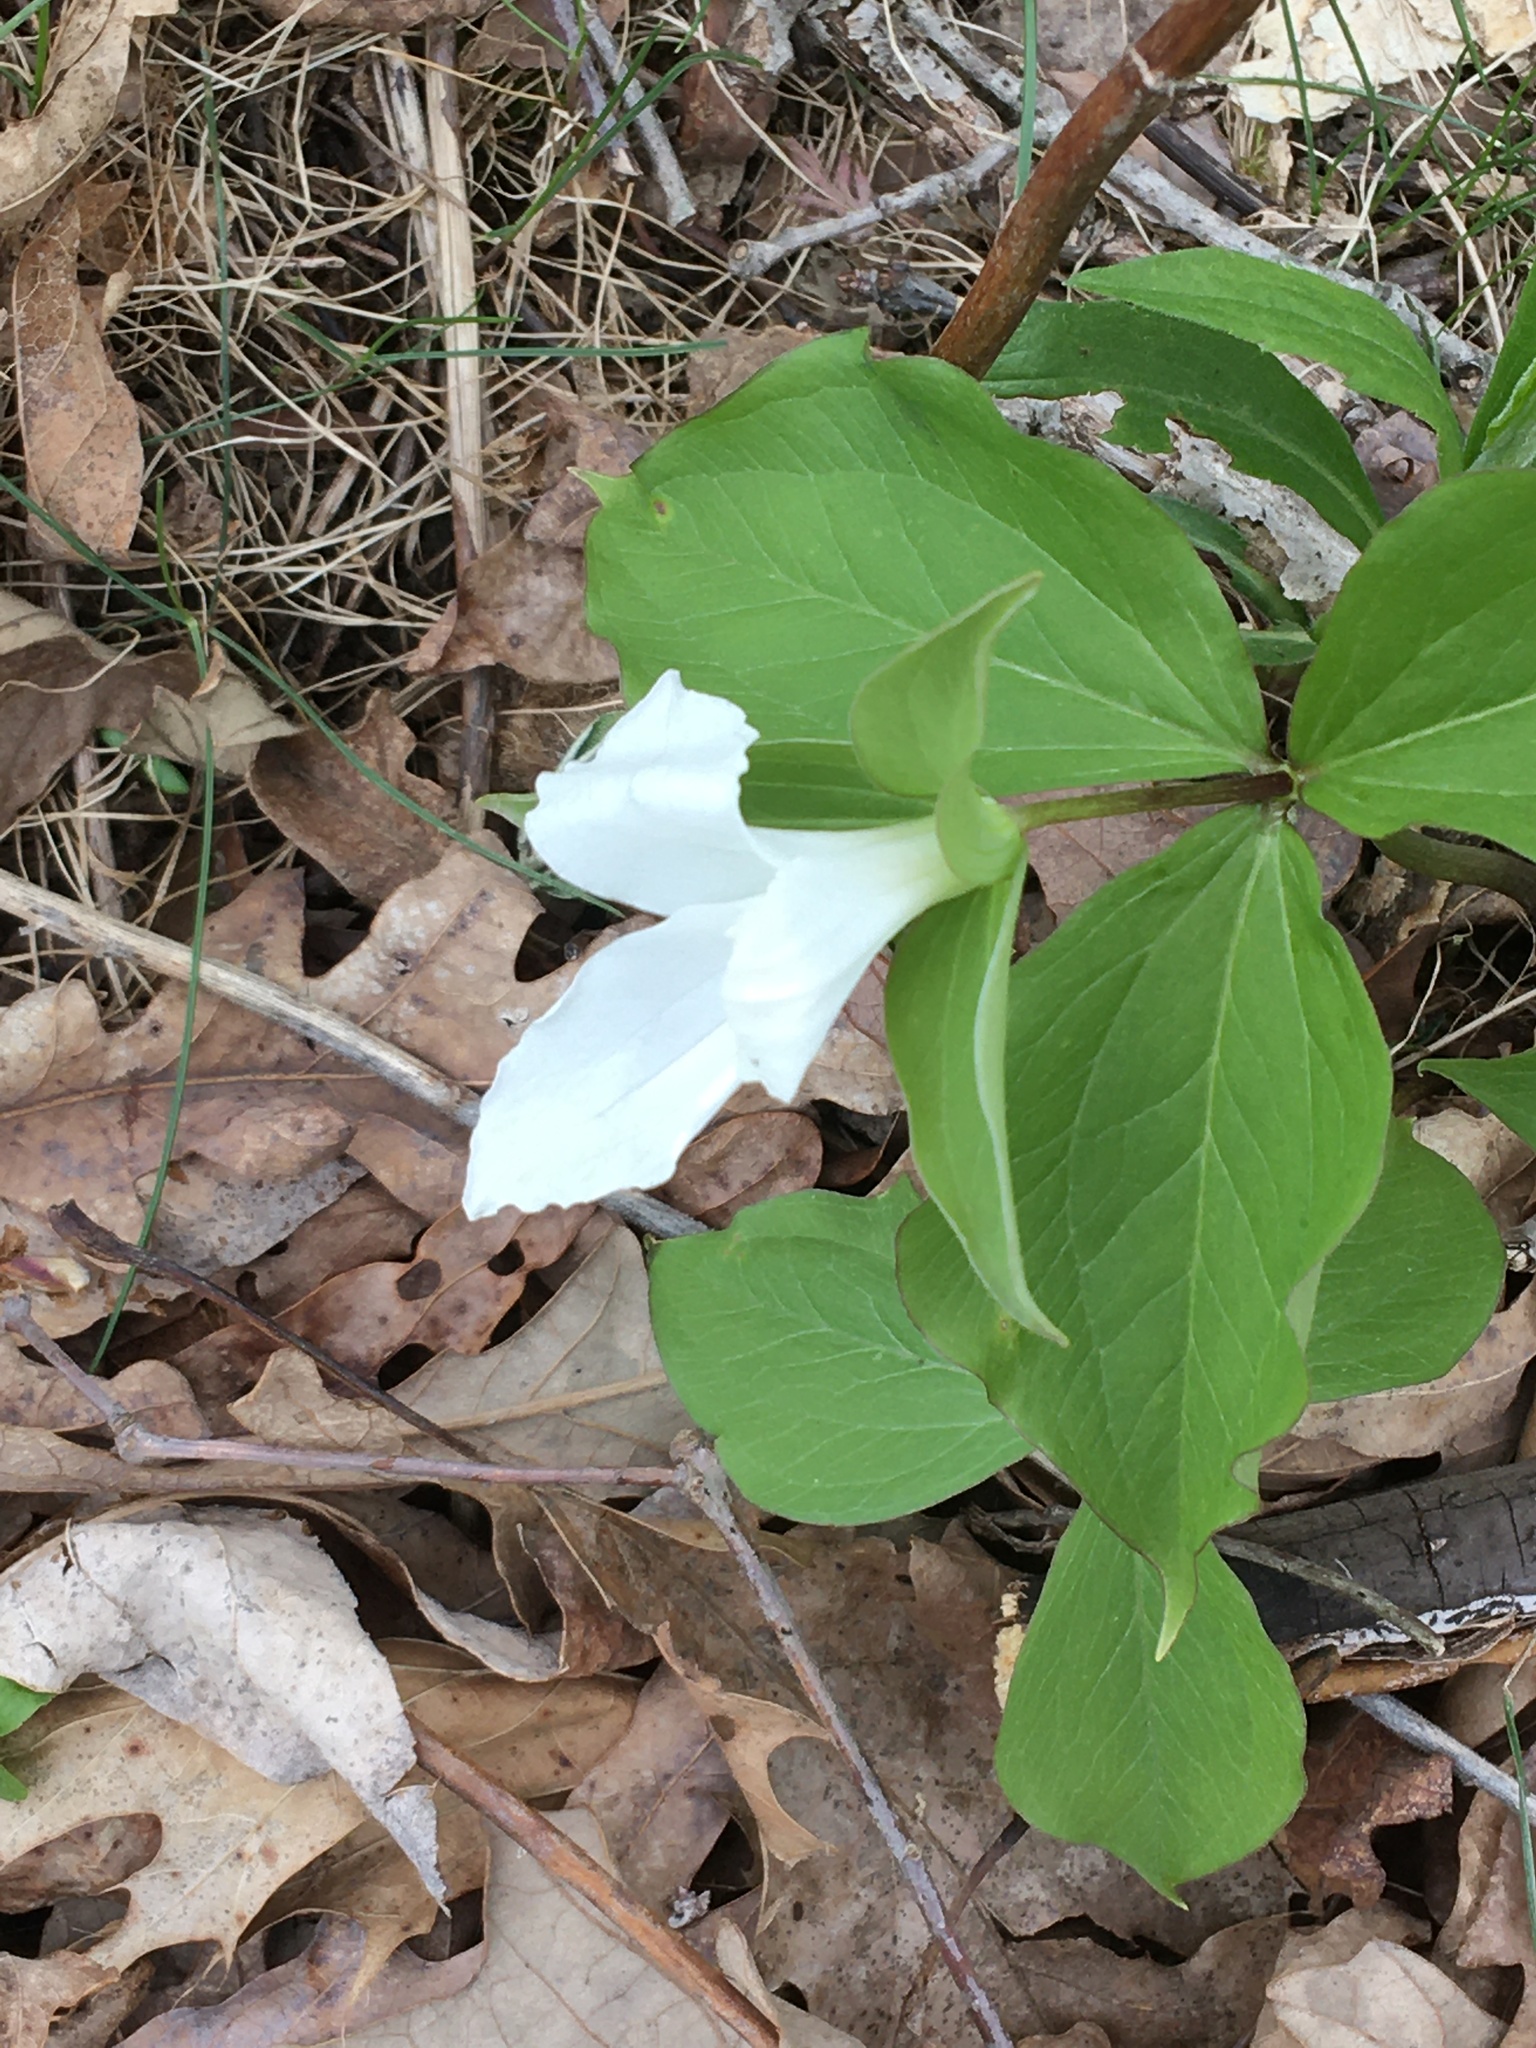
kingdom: Plantae
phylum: Tracheophyta
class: Liliopsida
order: Liliales
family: Melanthiaceae
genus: Trillium
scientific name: Trillium grandiflorum
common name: Great white trillium
